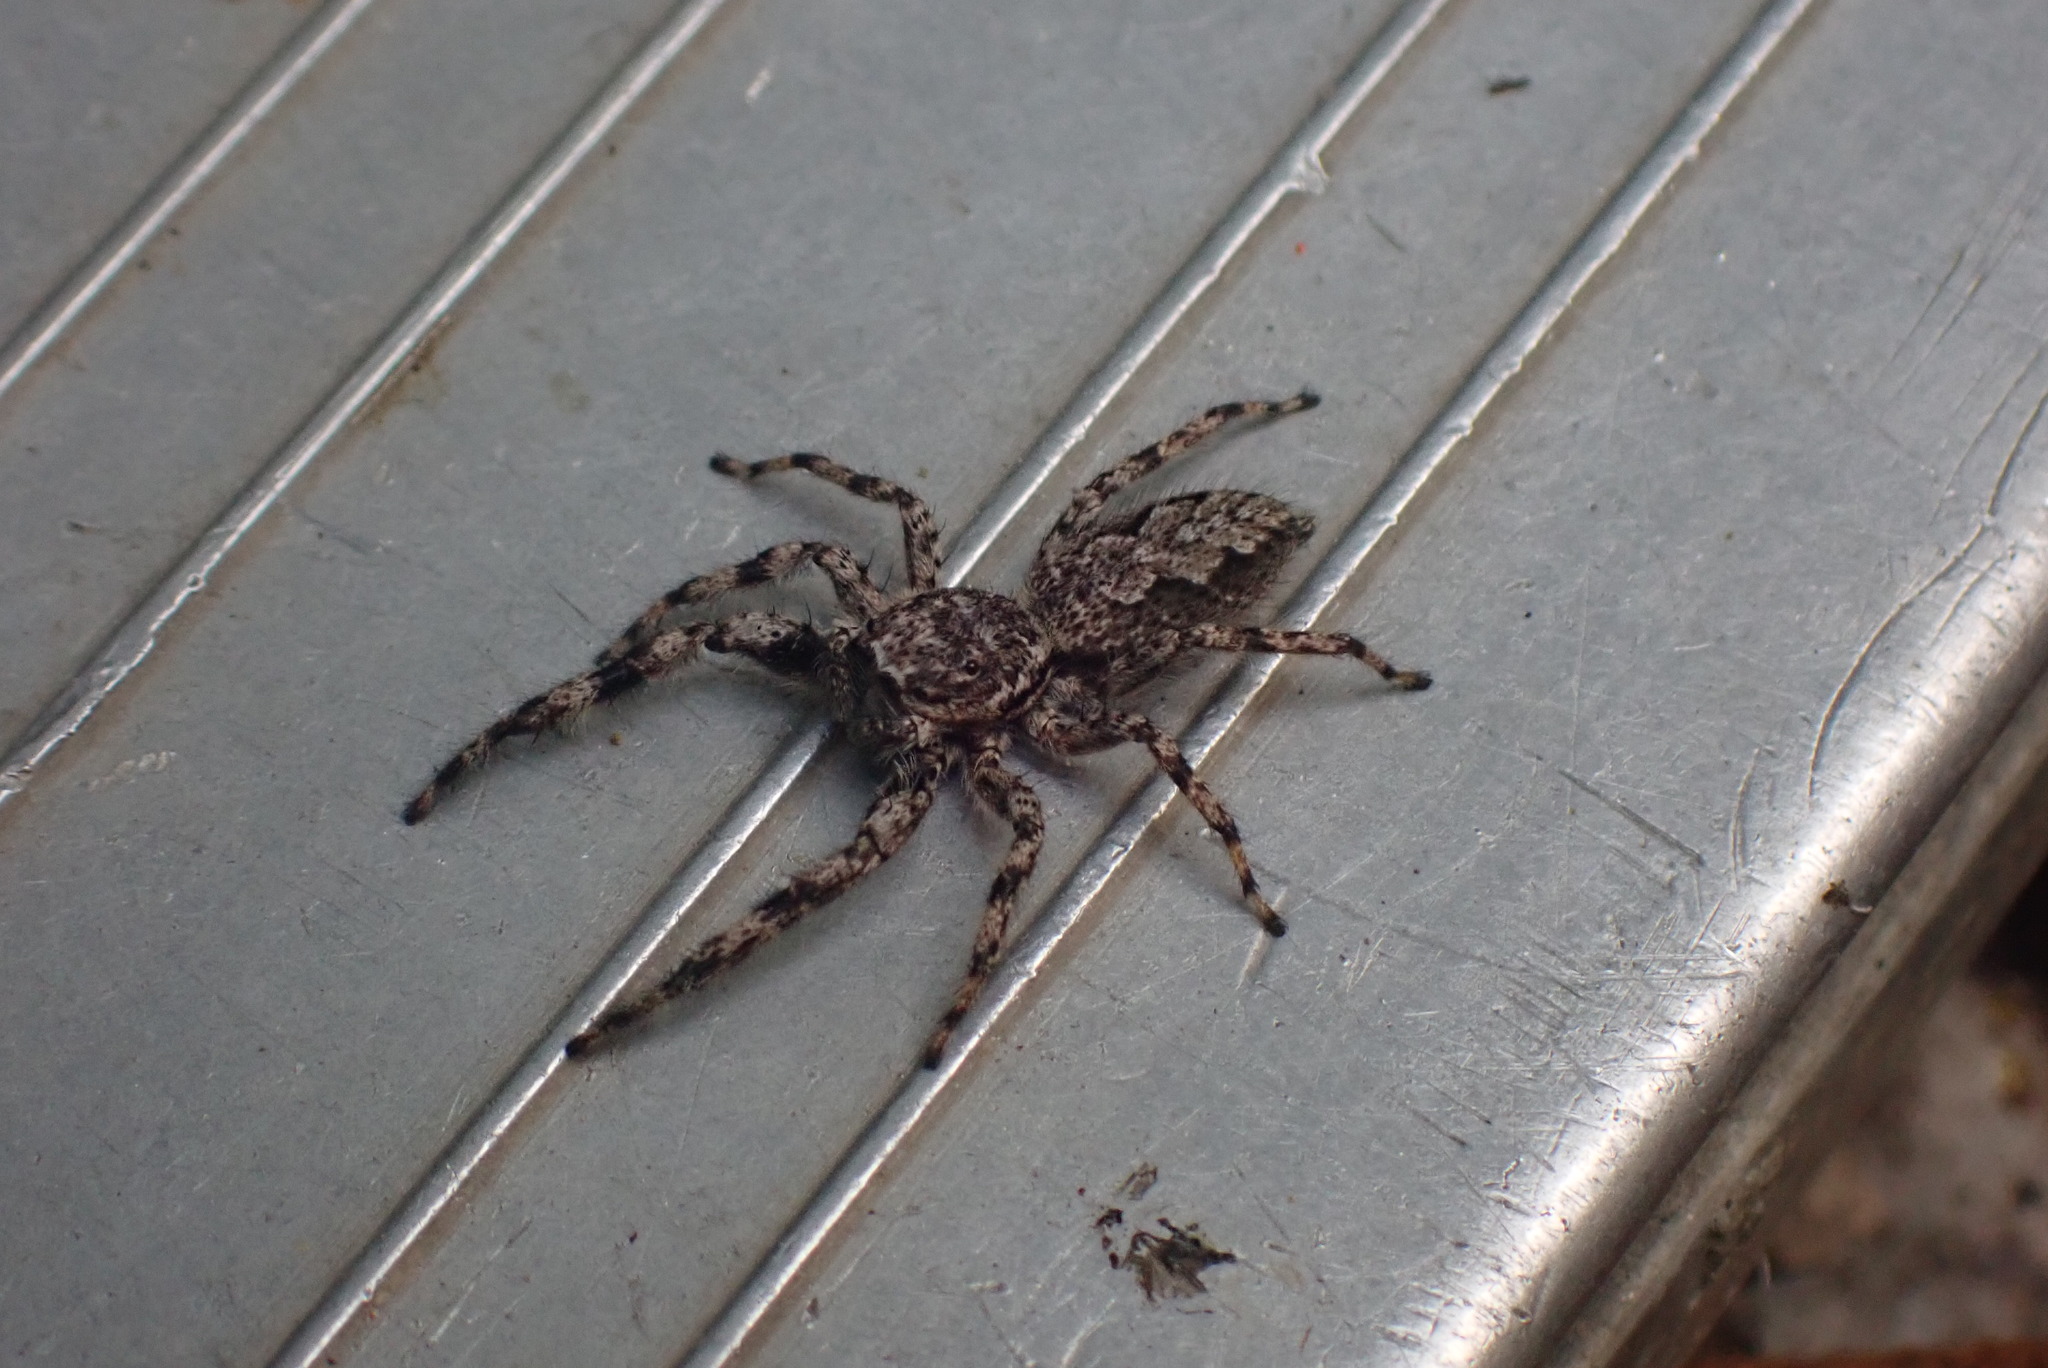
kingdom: Animalia
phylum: Arthropoda
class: Arachnida
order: Araneae
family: Salticidae
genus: Platycryptus
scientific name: Platycryptus undatus
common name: Tan jumping spider
